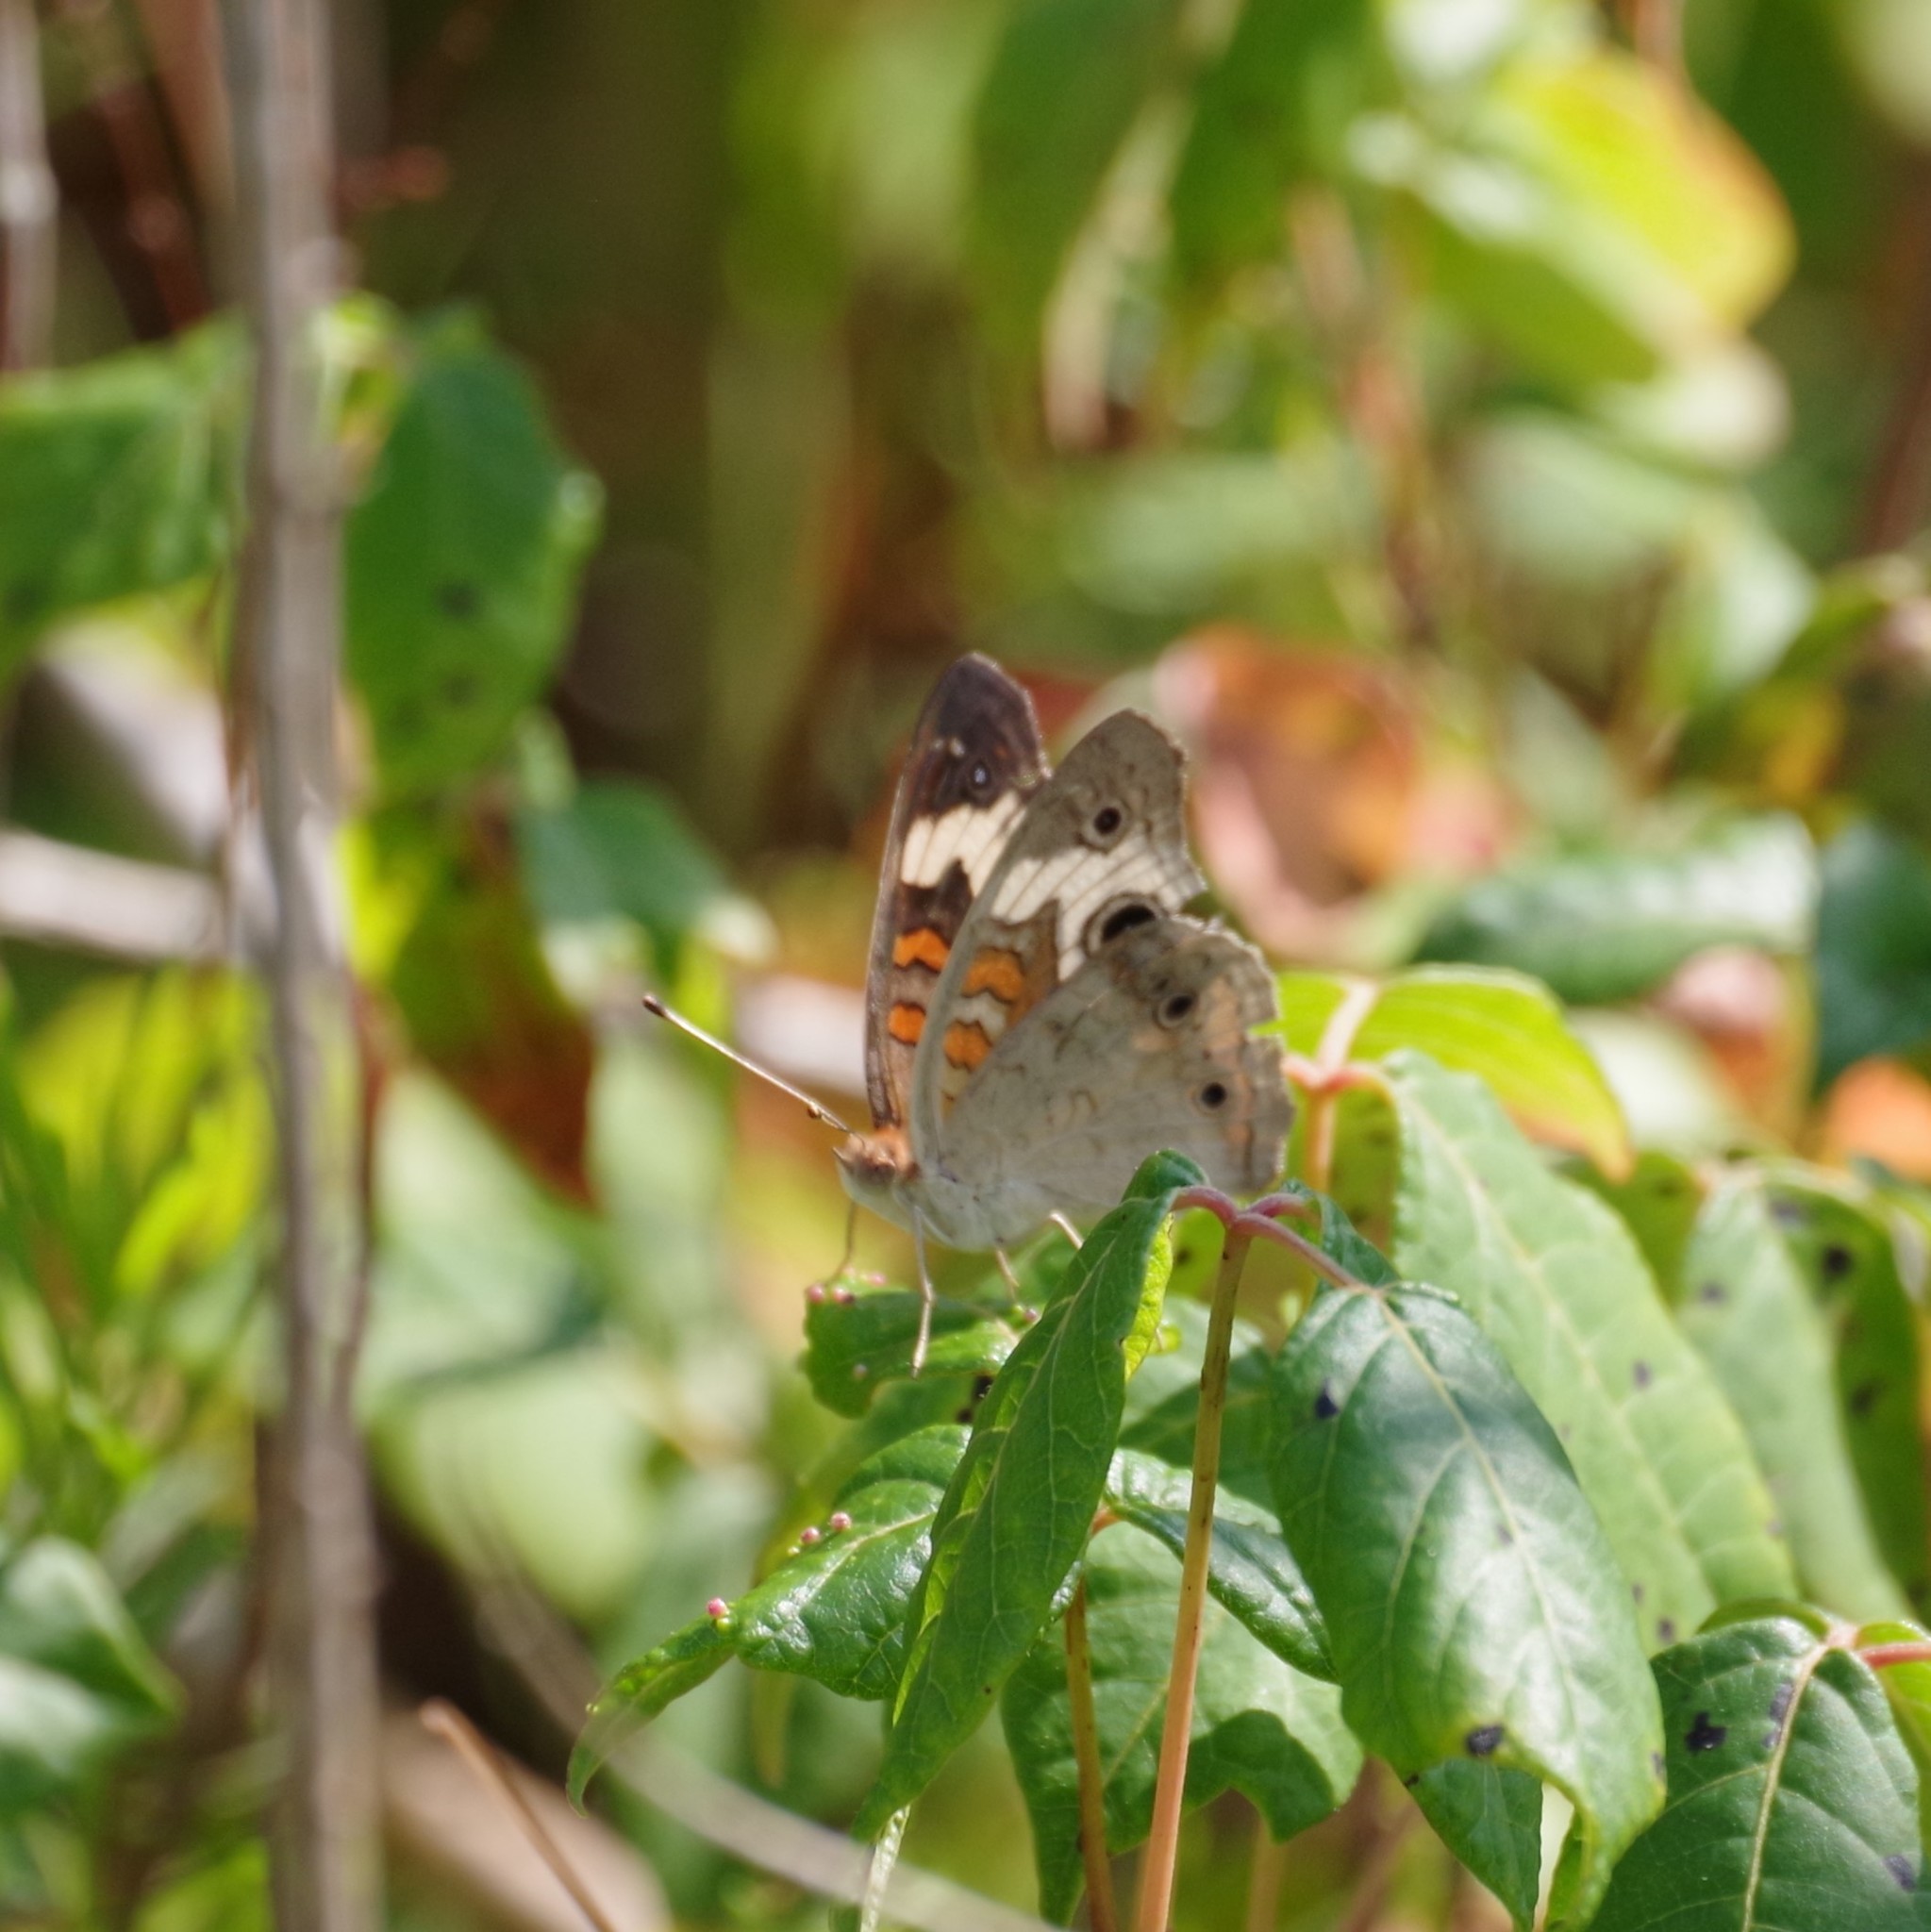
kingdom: Animalia
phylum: Arthropoda
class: Insecta
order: Lepidoptera
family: Nymphalidae
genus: Junonia
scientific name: Junonia coenia
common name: Common buckeye
